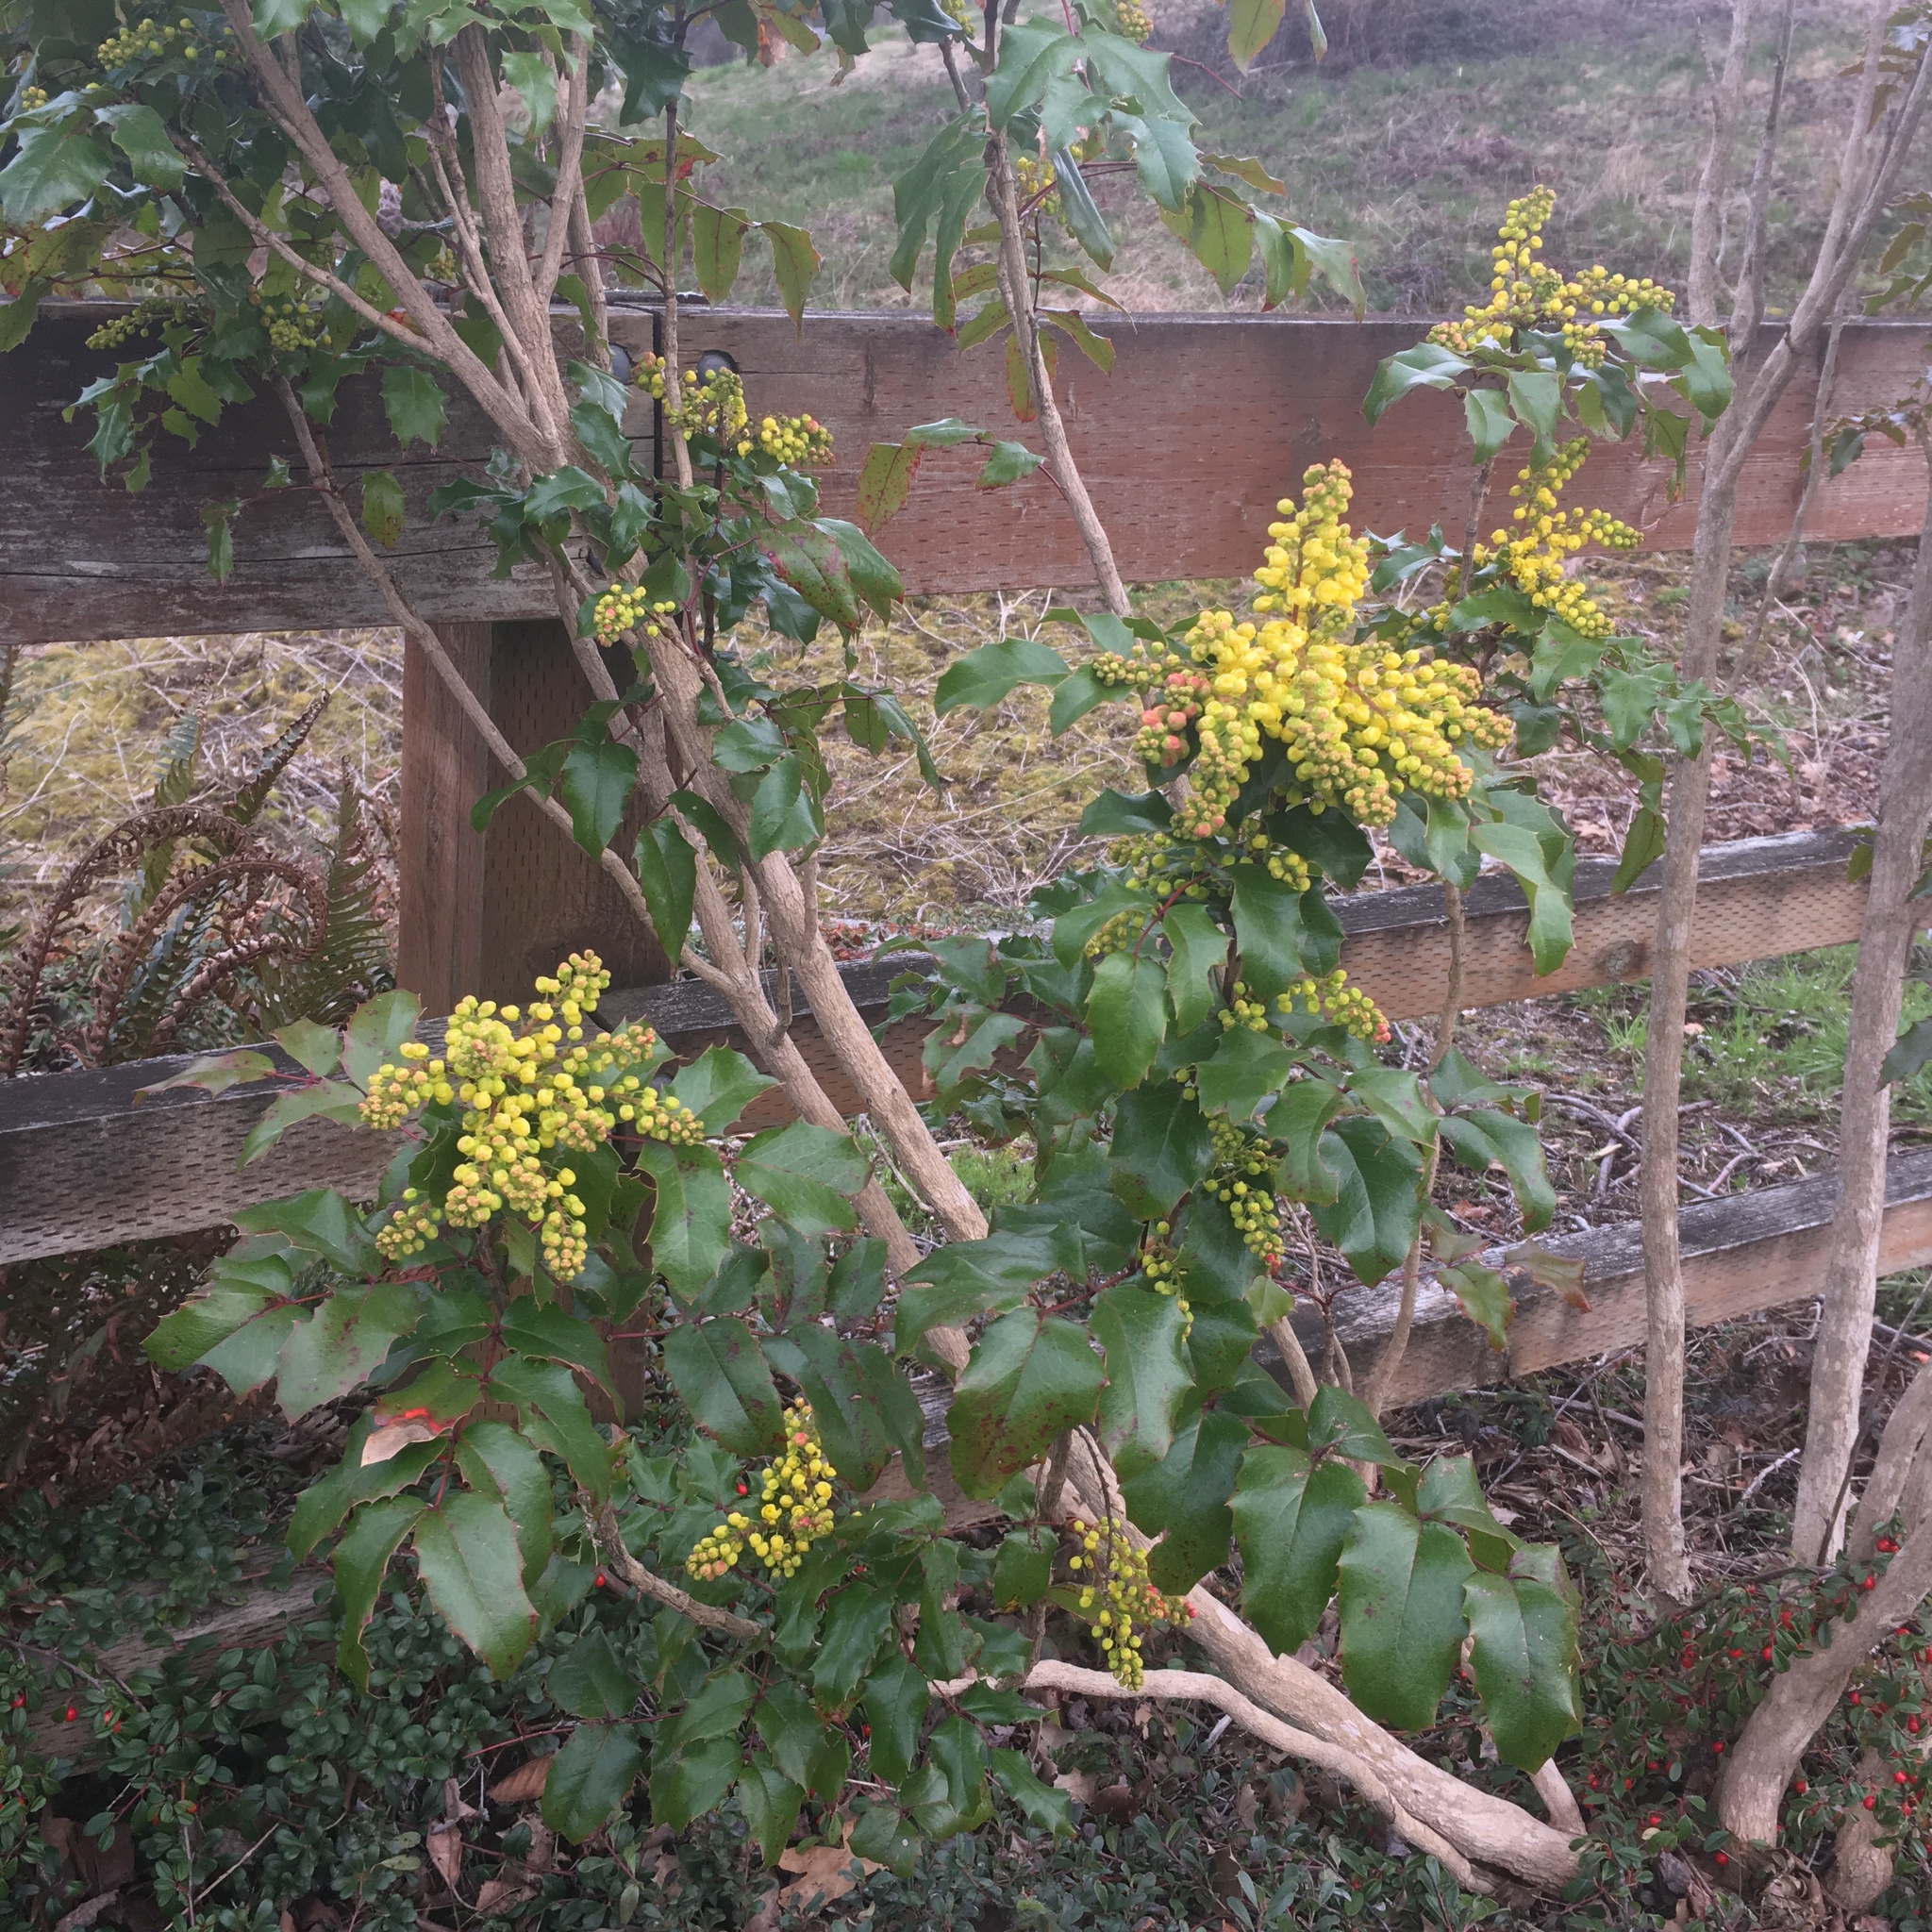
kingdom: Plantae
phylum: Tracheophyta
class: Magnoliopsida
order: Ranunculales
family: Berberidaceae
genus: Mahonia
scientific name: Mahonia aquifolium
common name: Oregon-grape
